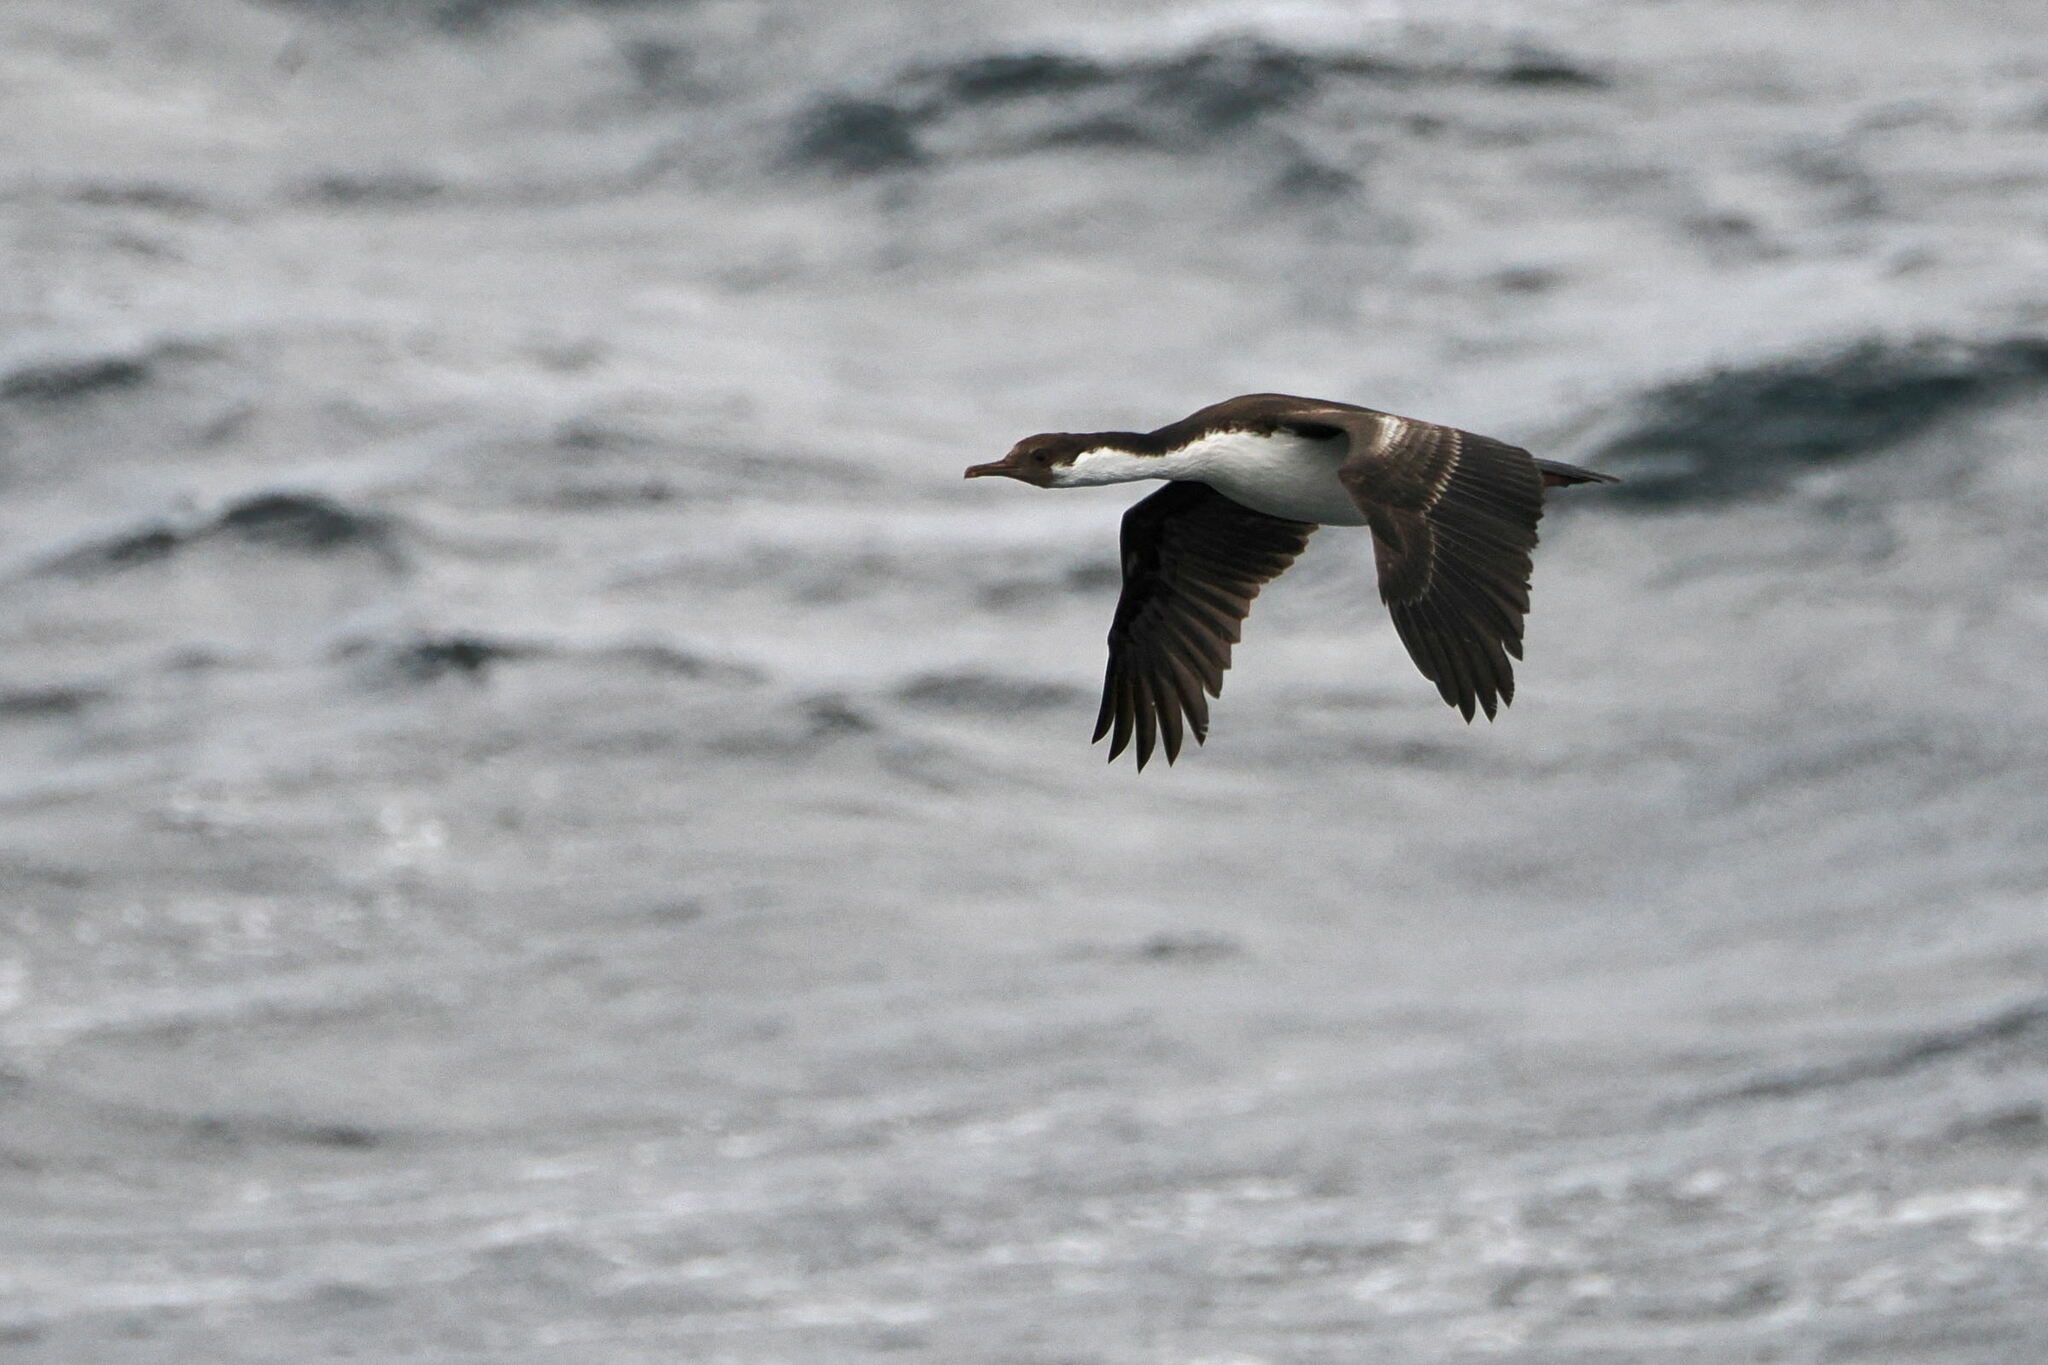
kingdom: Animalia
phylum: Chordata
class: Aves
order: Suliformes
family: Phalacrocoracidae
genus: Leucocarbo
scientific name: Leucocarbo atriceps
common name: Imperial shag
